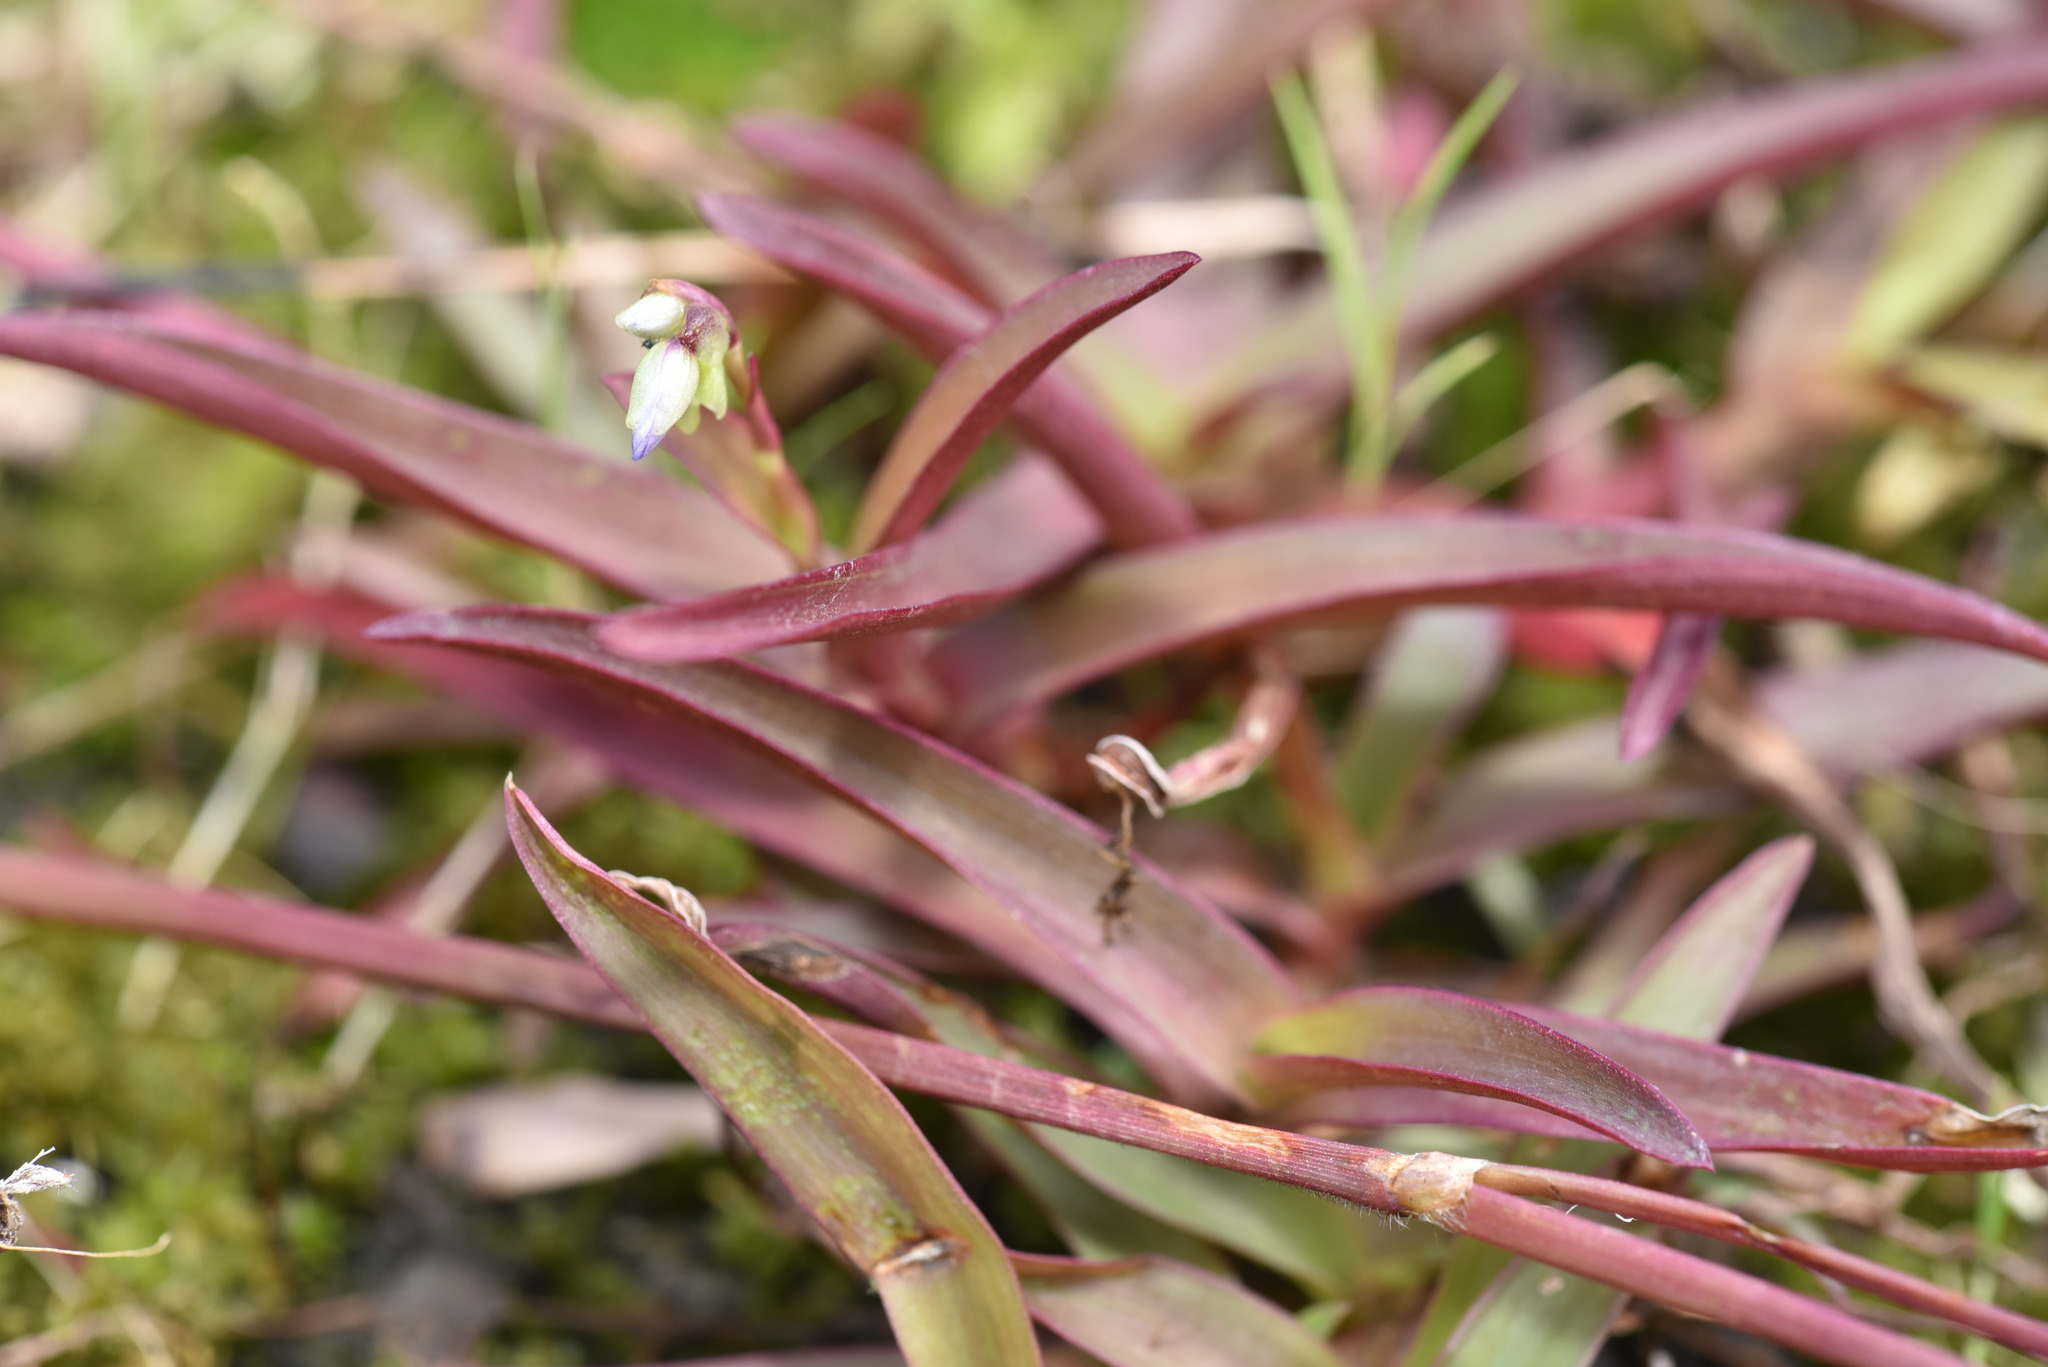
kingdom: Plantae
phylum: Tracheophyta
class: Liliopsida
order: Commelinales
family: Commelinaceae
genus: Murdannia
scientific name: Murdannia loriformis
